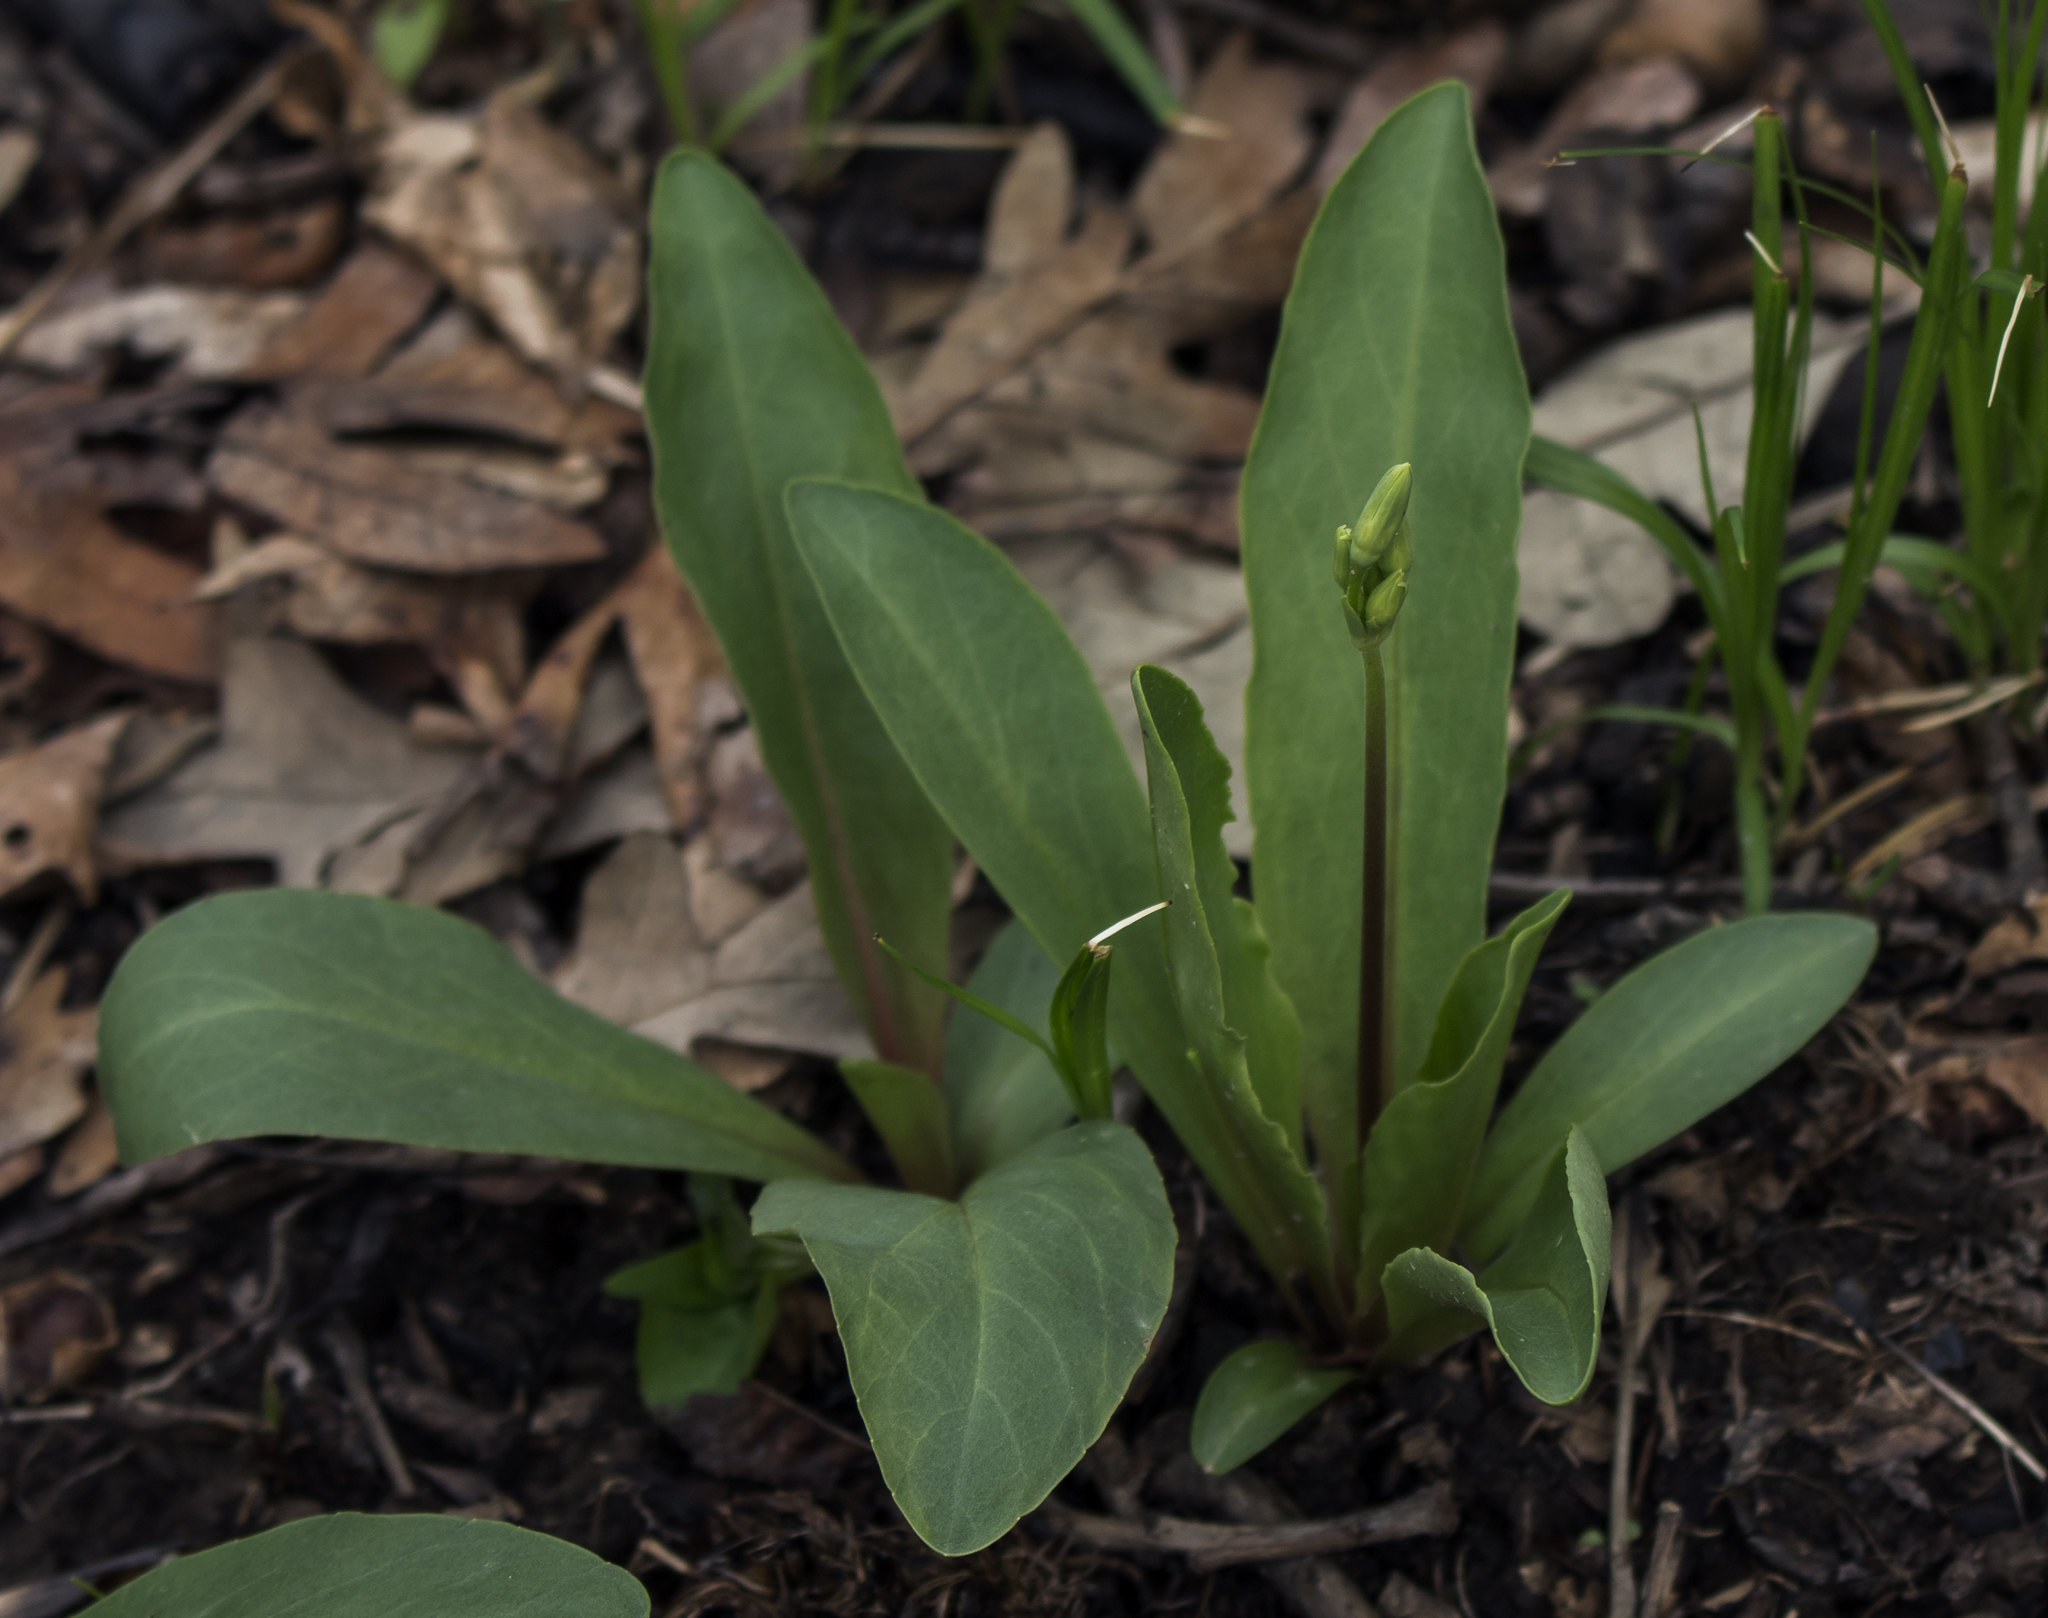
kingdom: Plantae
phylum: Tracheophyta
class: Magnoliopsida
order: Ericales
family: Primulaceae
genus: Dodecatheon
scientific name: Dodecatheon meadia
